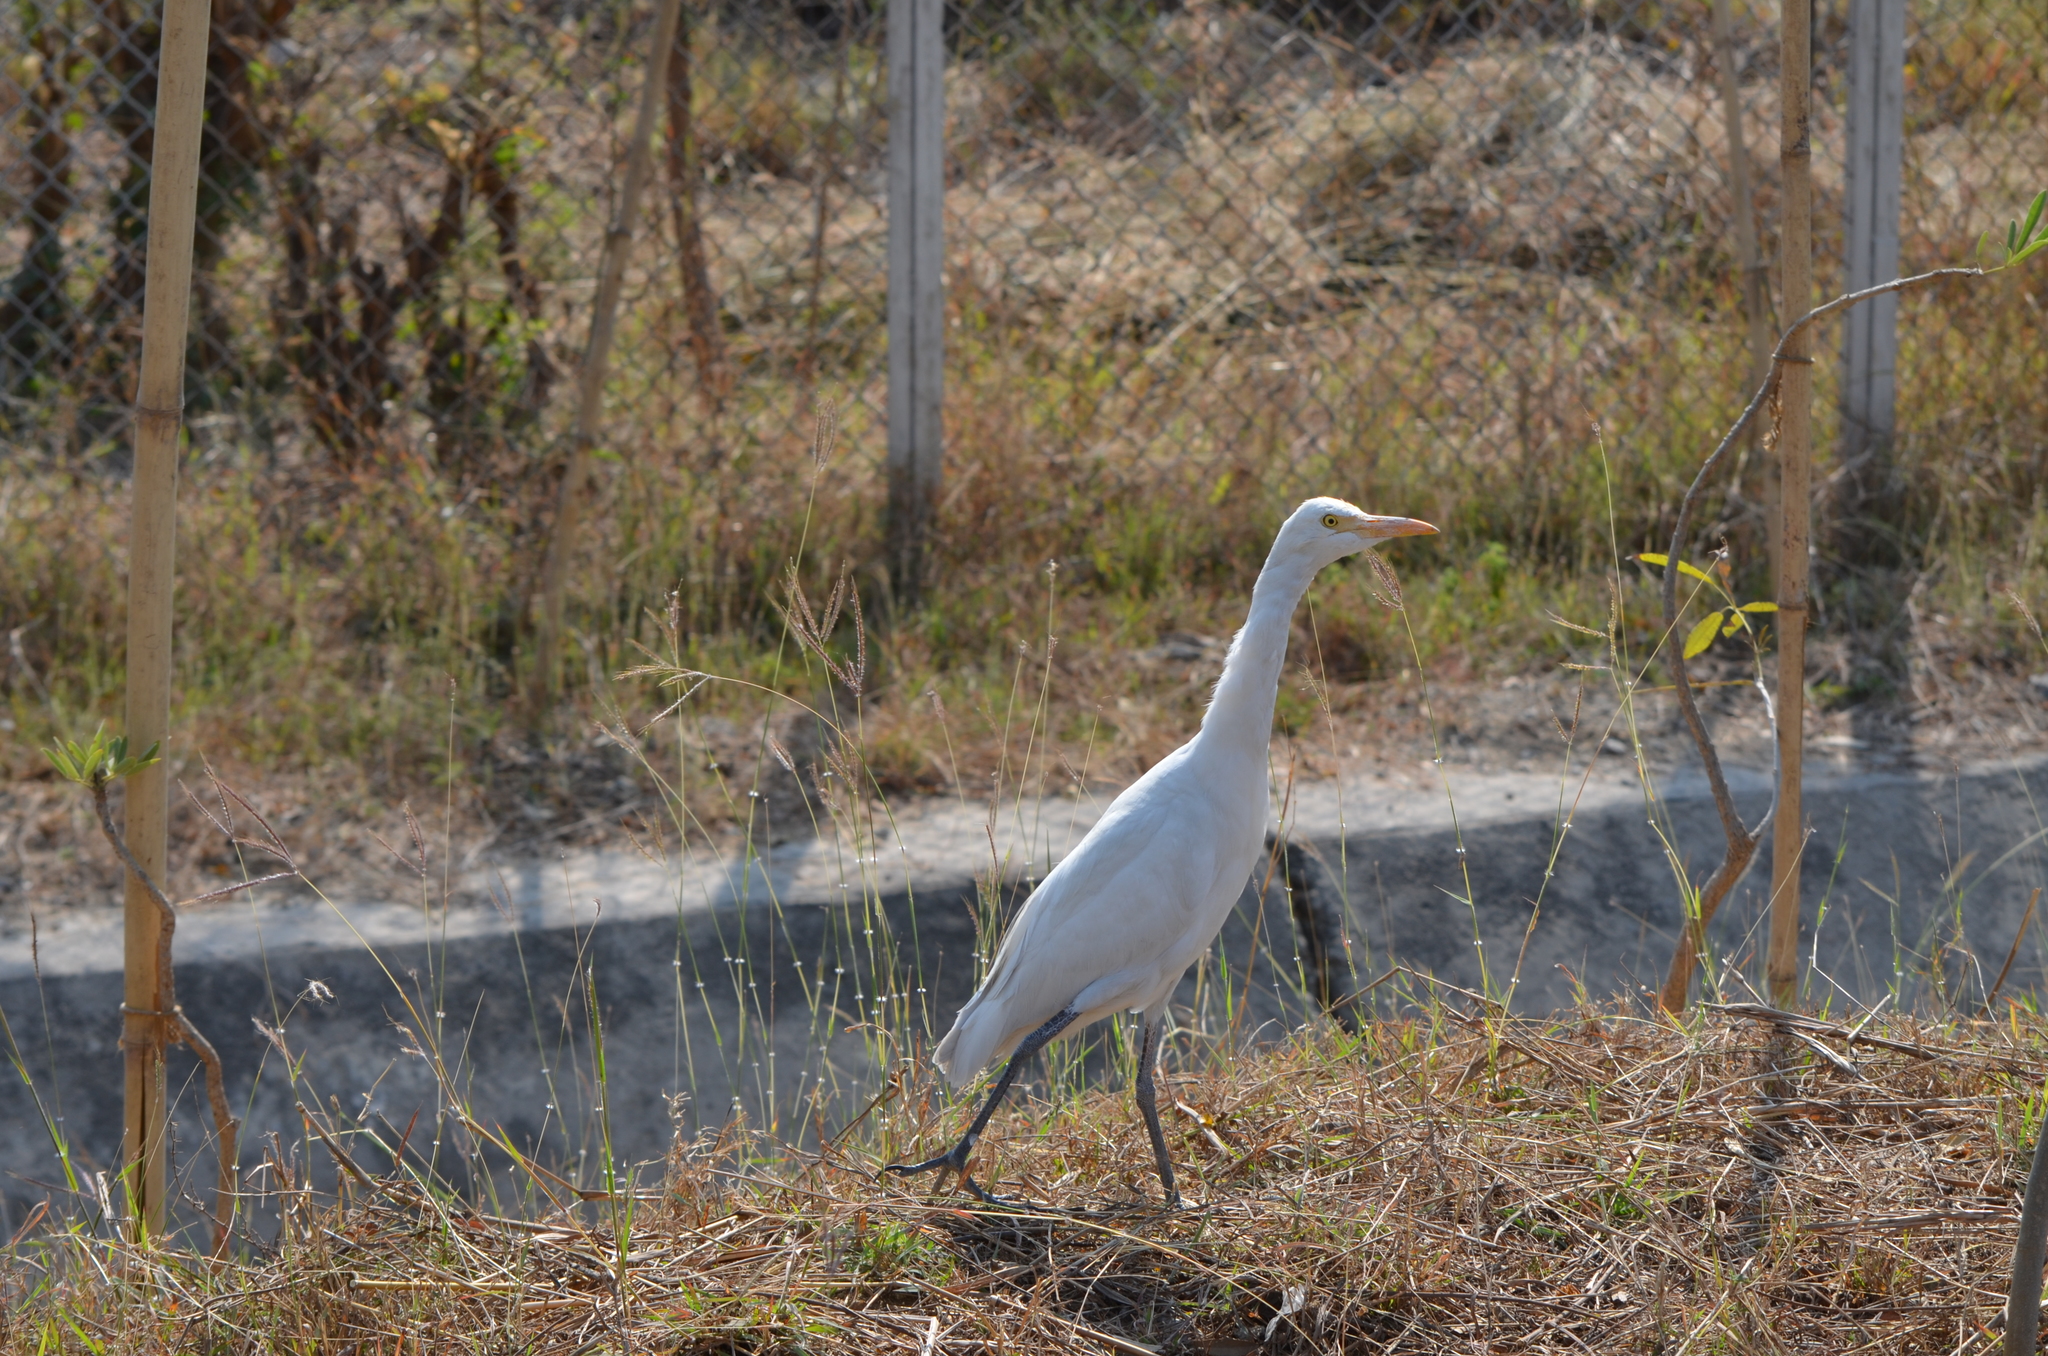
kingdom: Animalia
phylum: Chordata
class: Aves
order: Pelecaniformes
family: Ardeidae
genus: Bubulcus
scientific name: Bubulcus coromandus
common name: Eastern cattle egret
